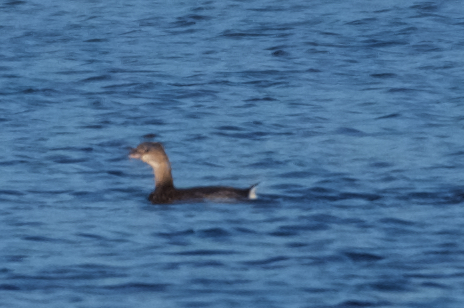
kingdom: Animalia
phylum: Chordata
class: Aves
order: Podicipediformes
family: Podicipedidae
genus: Podilymbus
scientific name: Podilymbus podiceps
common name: Pied-billed grebe
